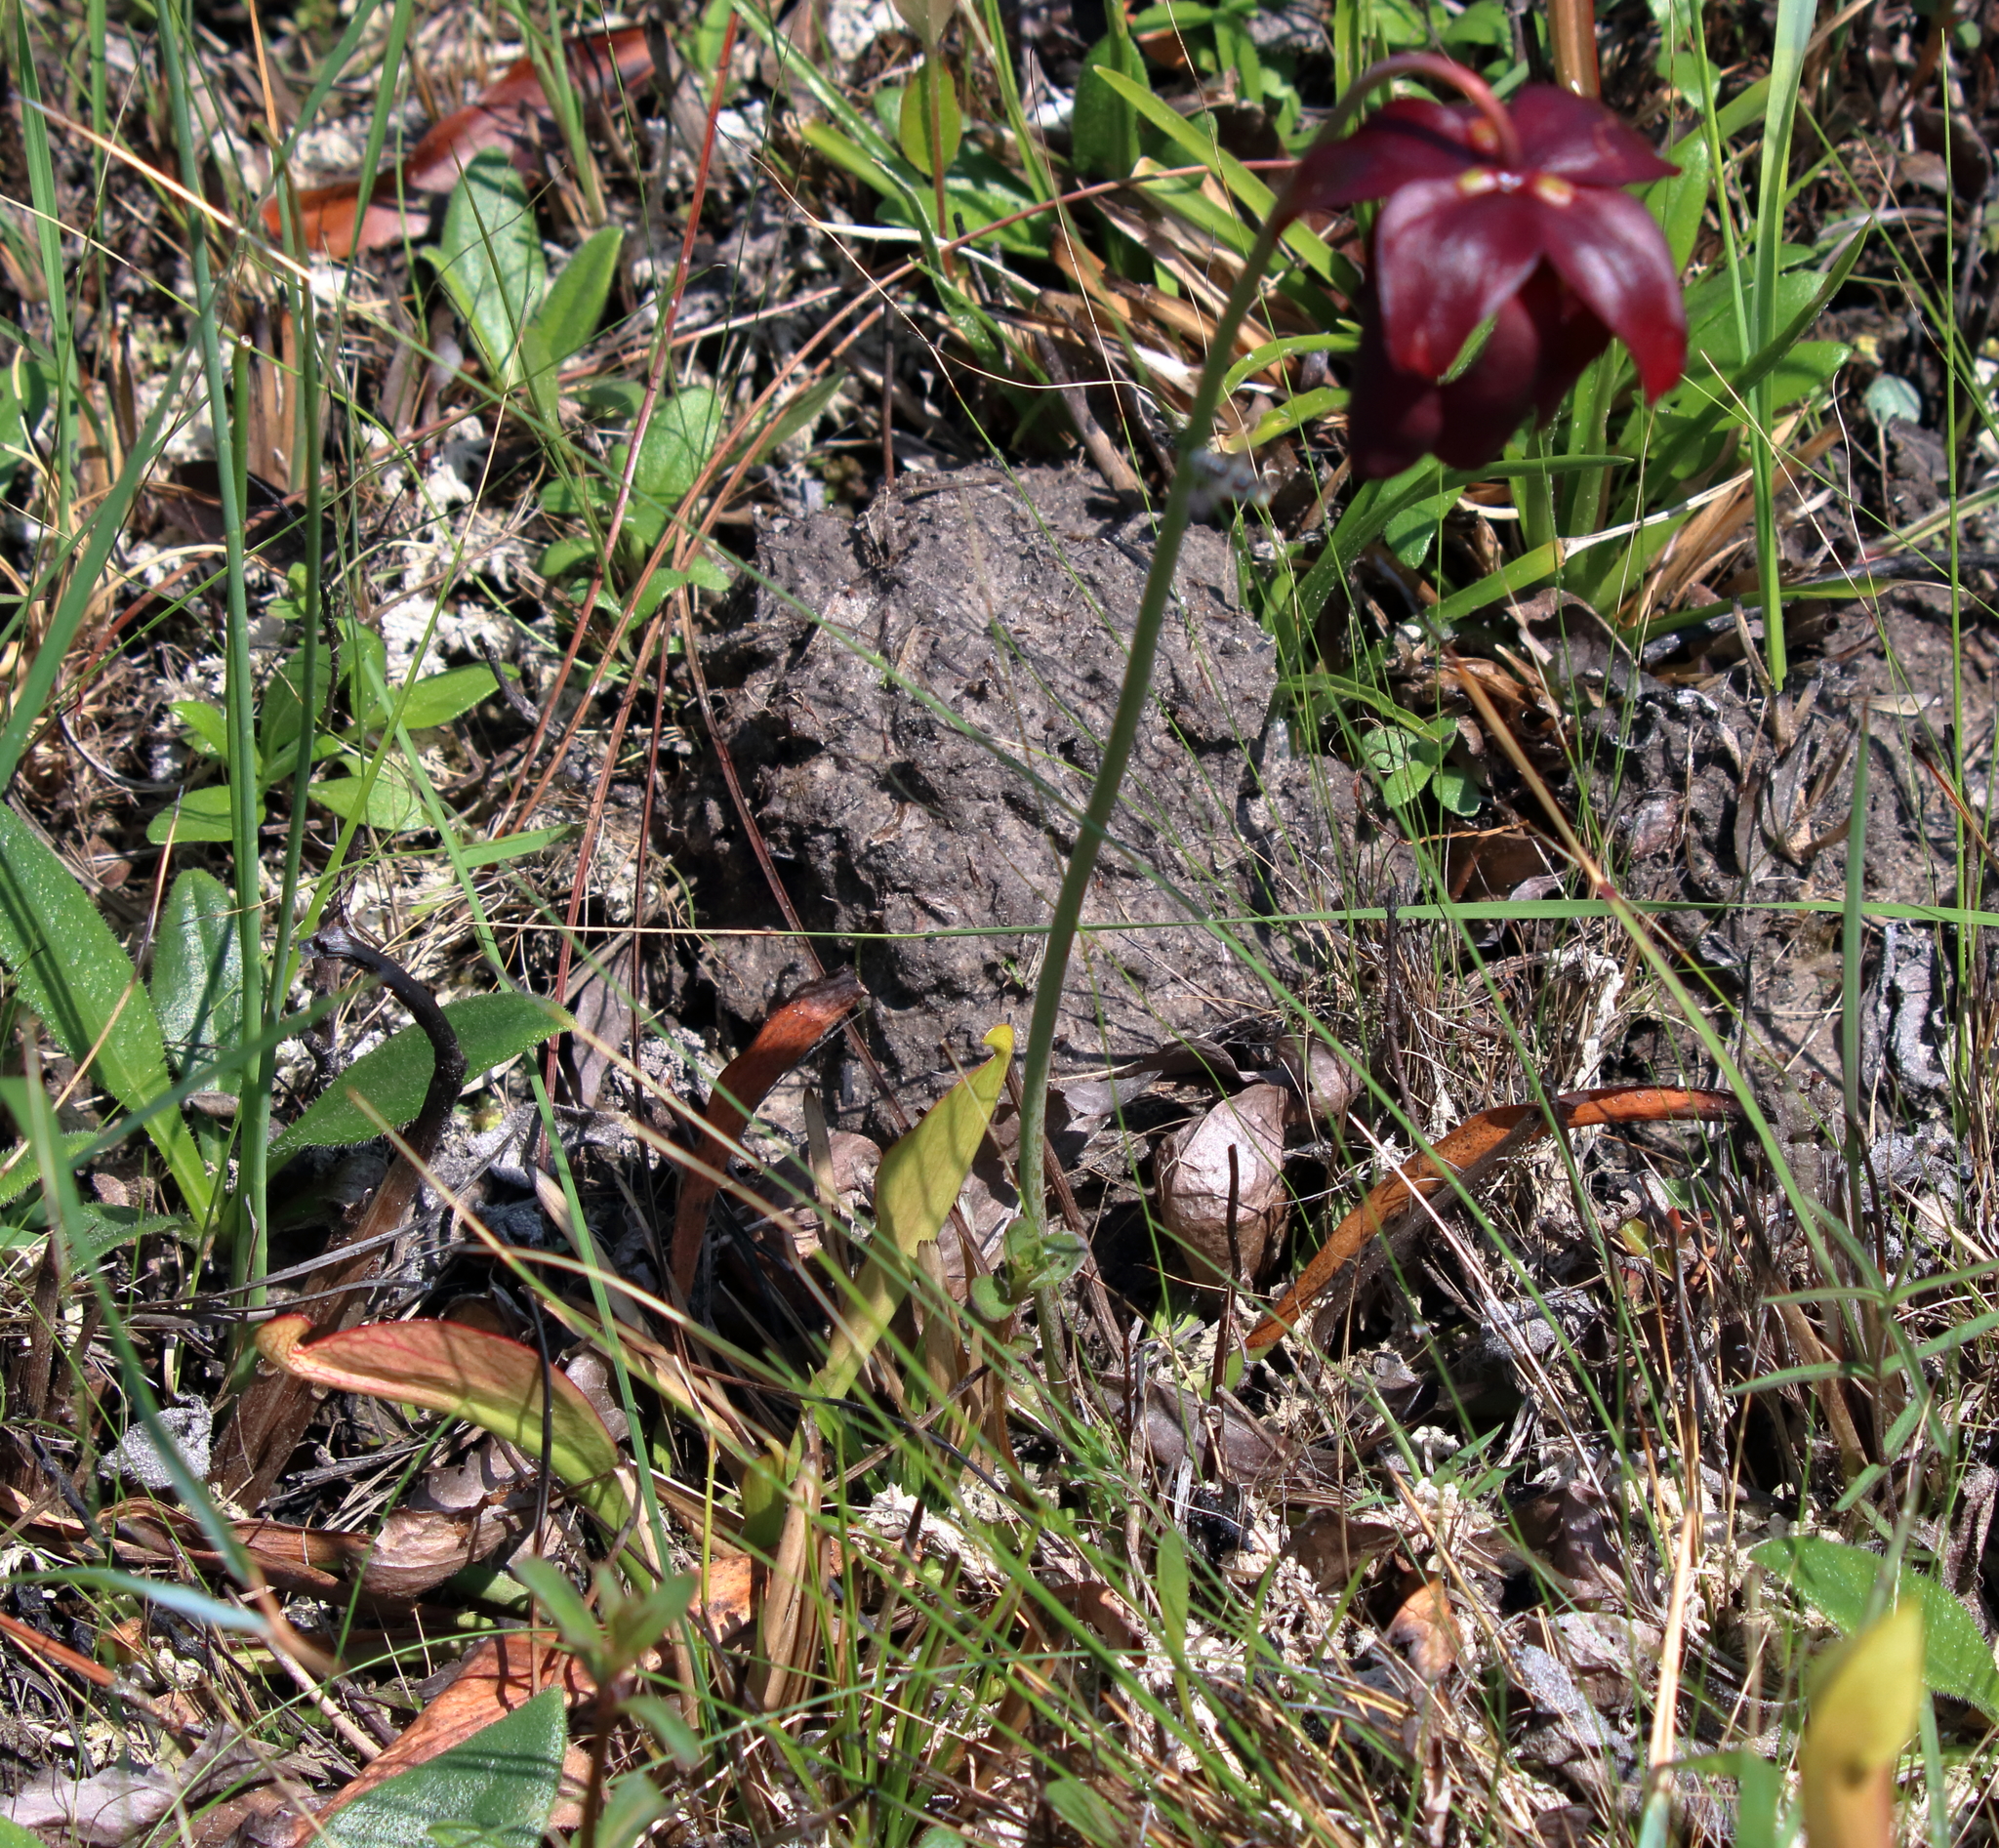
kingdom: Plantae
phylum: Tracheophyta
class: Magnoliopsida
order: Ericales
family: Sarraceniaceae
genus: Sarracenia
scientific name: Sarracenia psittacina
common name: Parrot pitcherplant
